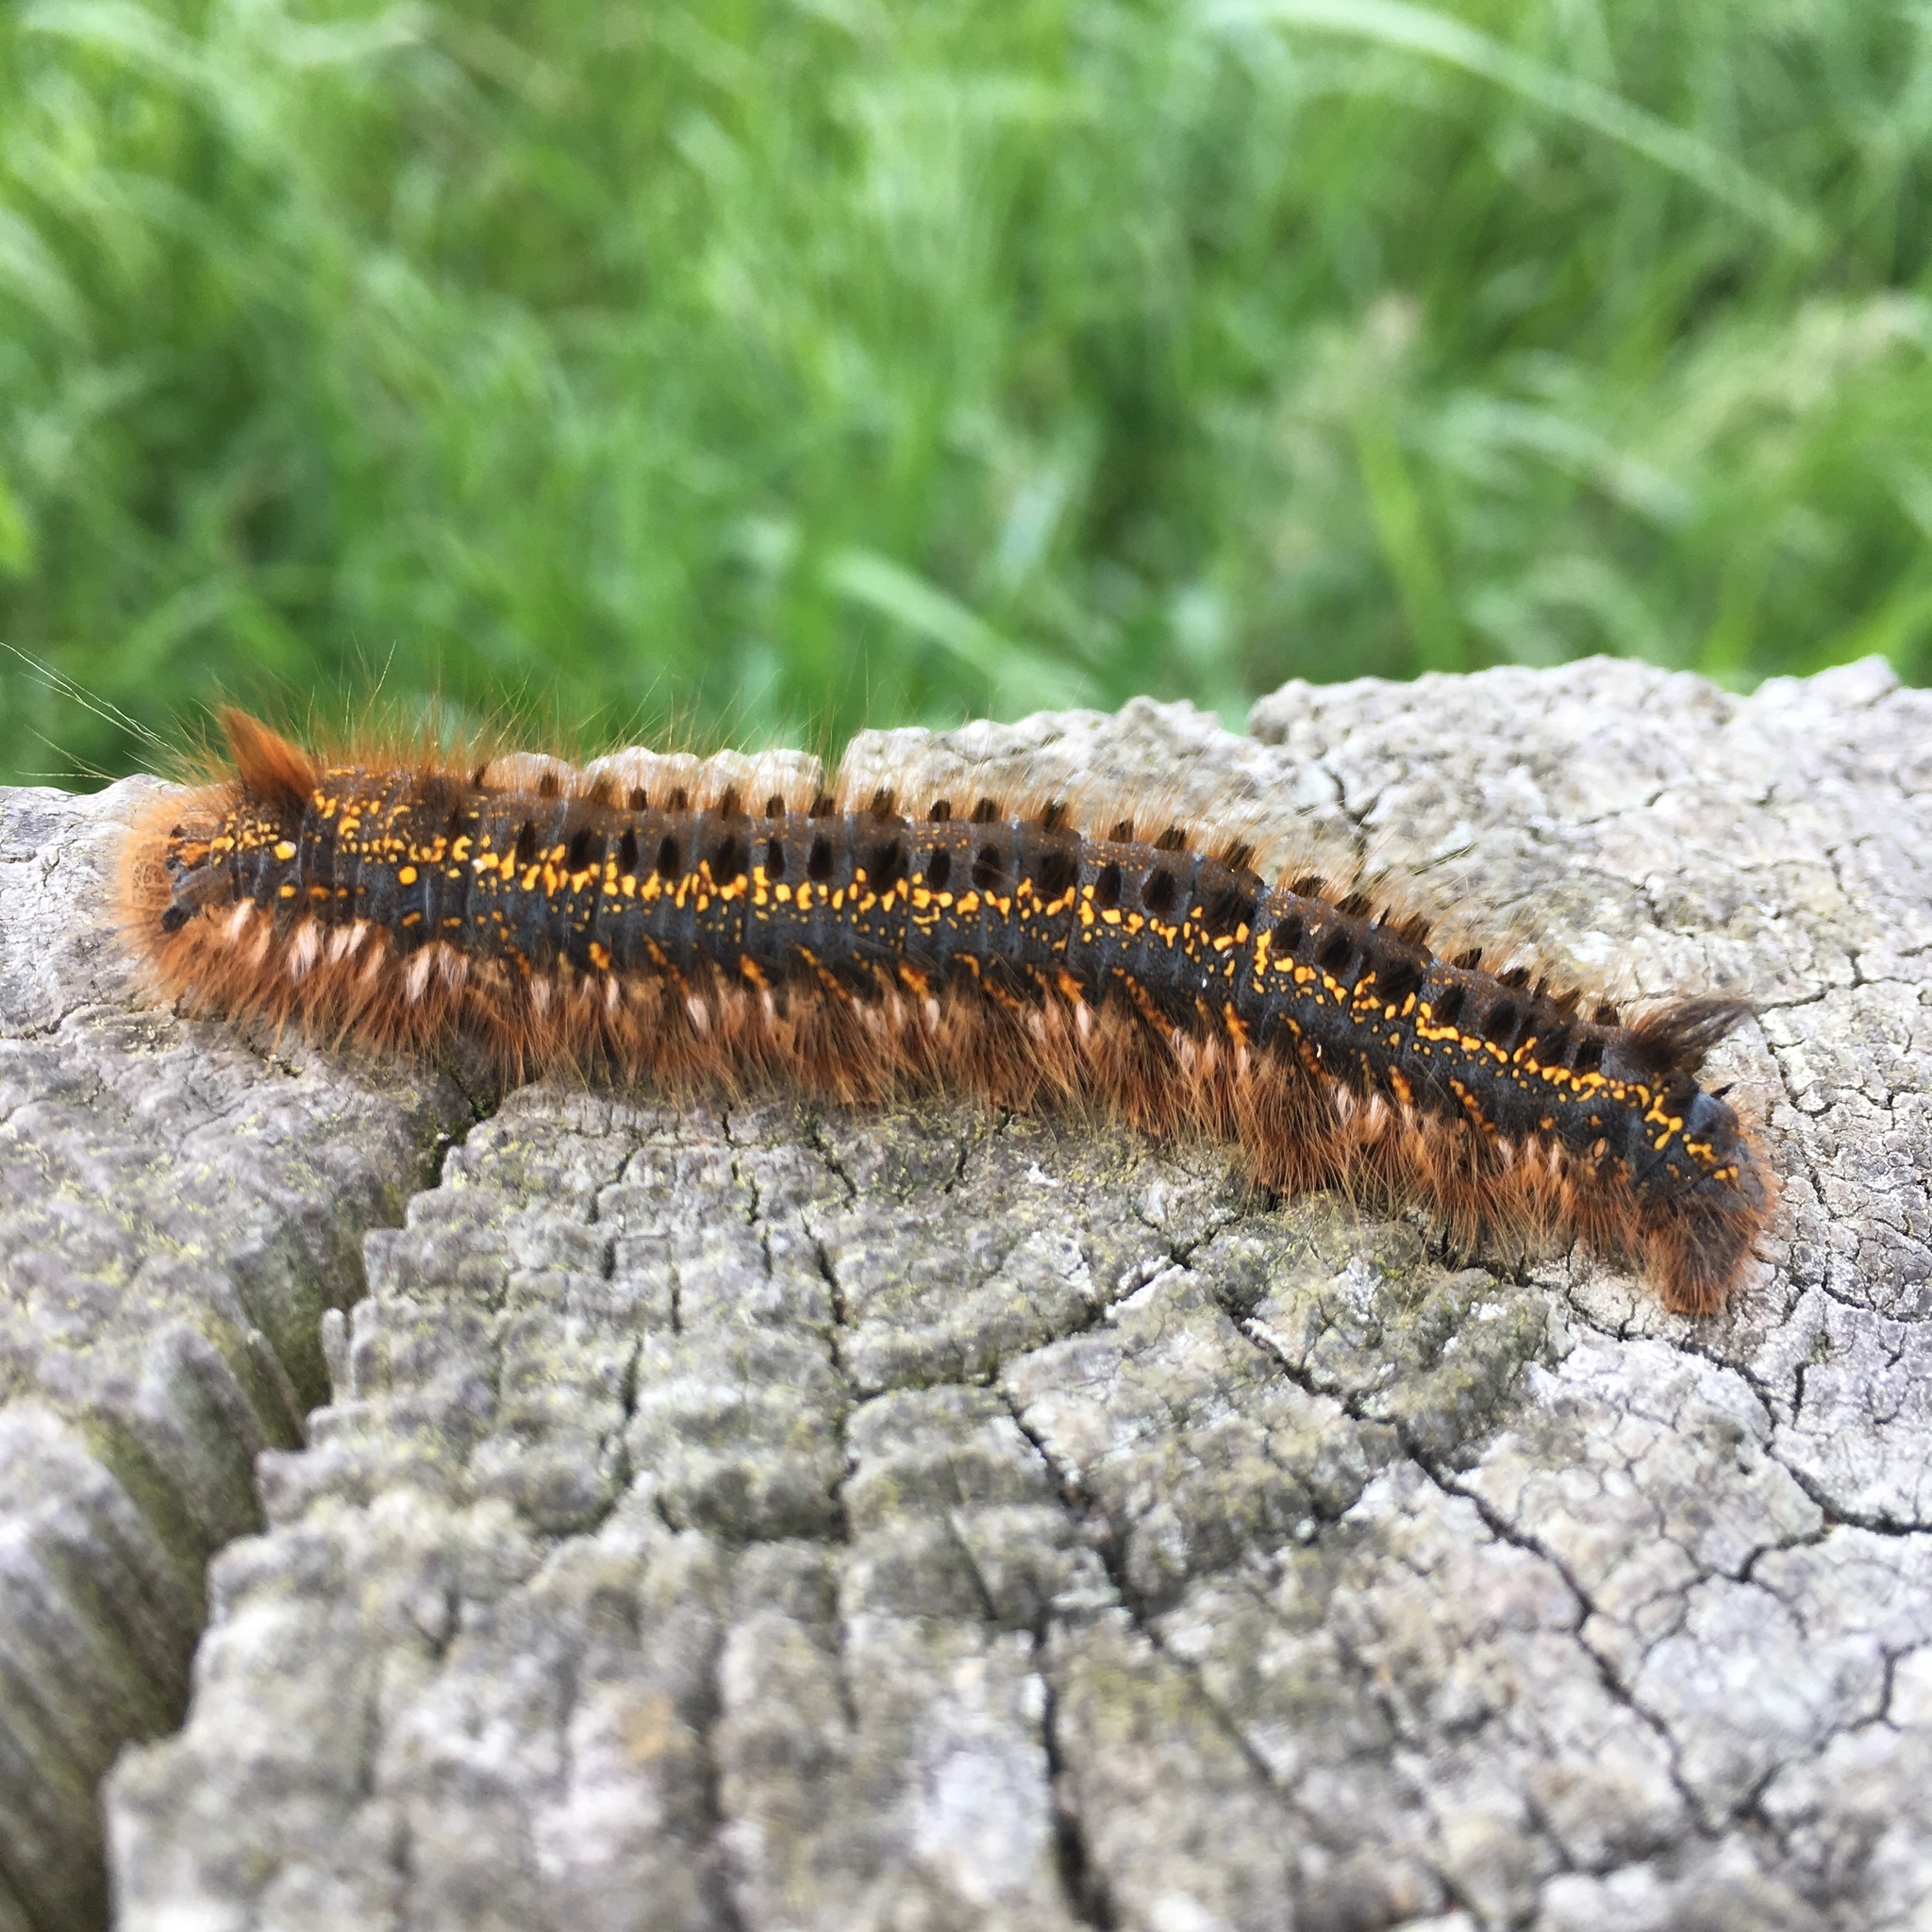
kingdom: Animalia
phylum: Arthropoda
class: Insecta
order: Lepidoptera
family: Lasiocampidae
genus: Euthrix
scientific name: Euthrix potatoria
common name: Drinker
